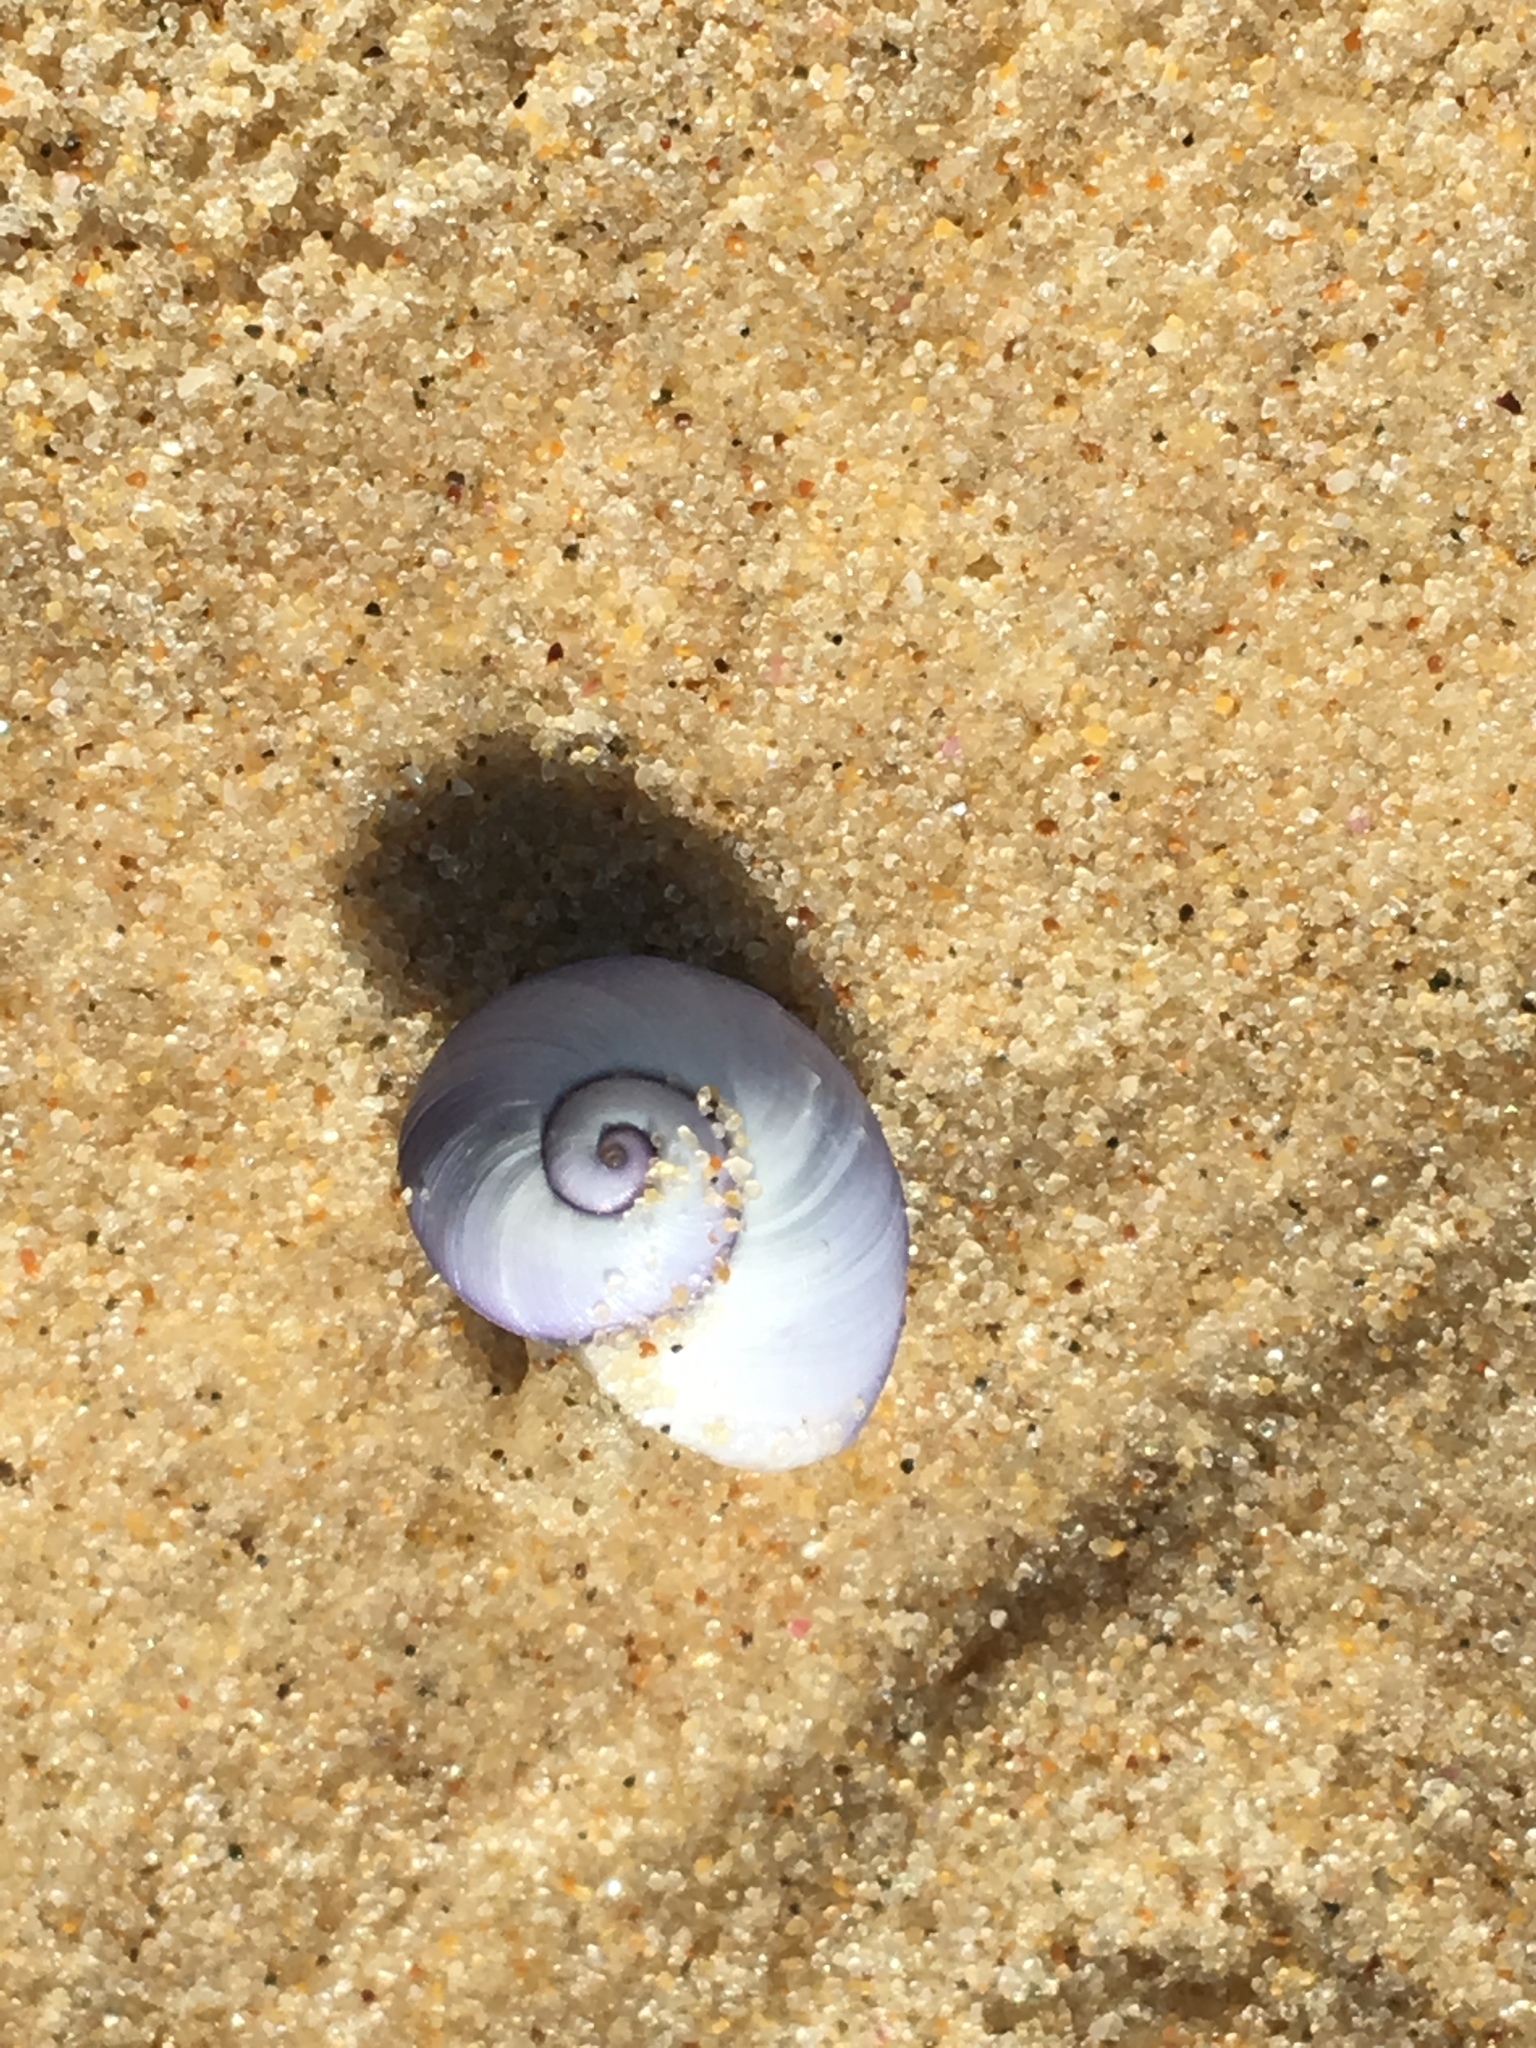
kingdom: Animalia
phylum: Mollusca
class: Gastropoda
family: Epitoniidae
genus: Janthina
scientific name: Janthina janthina
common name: Common janthina
